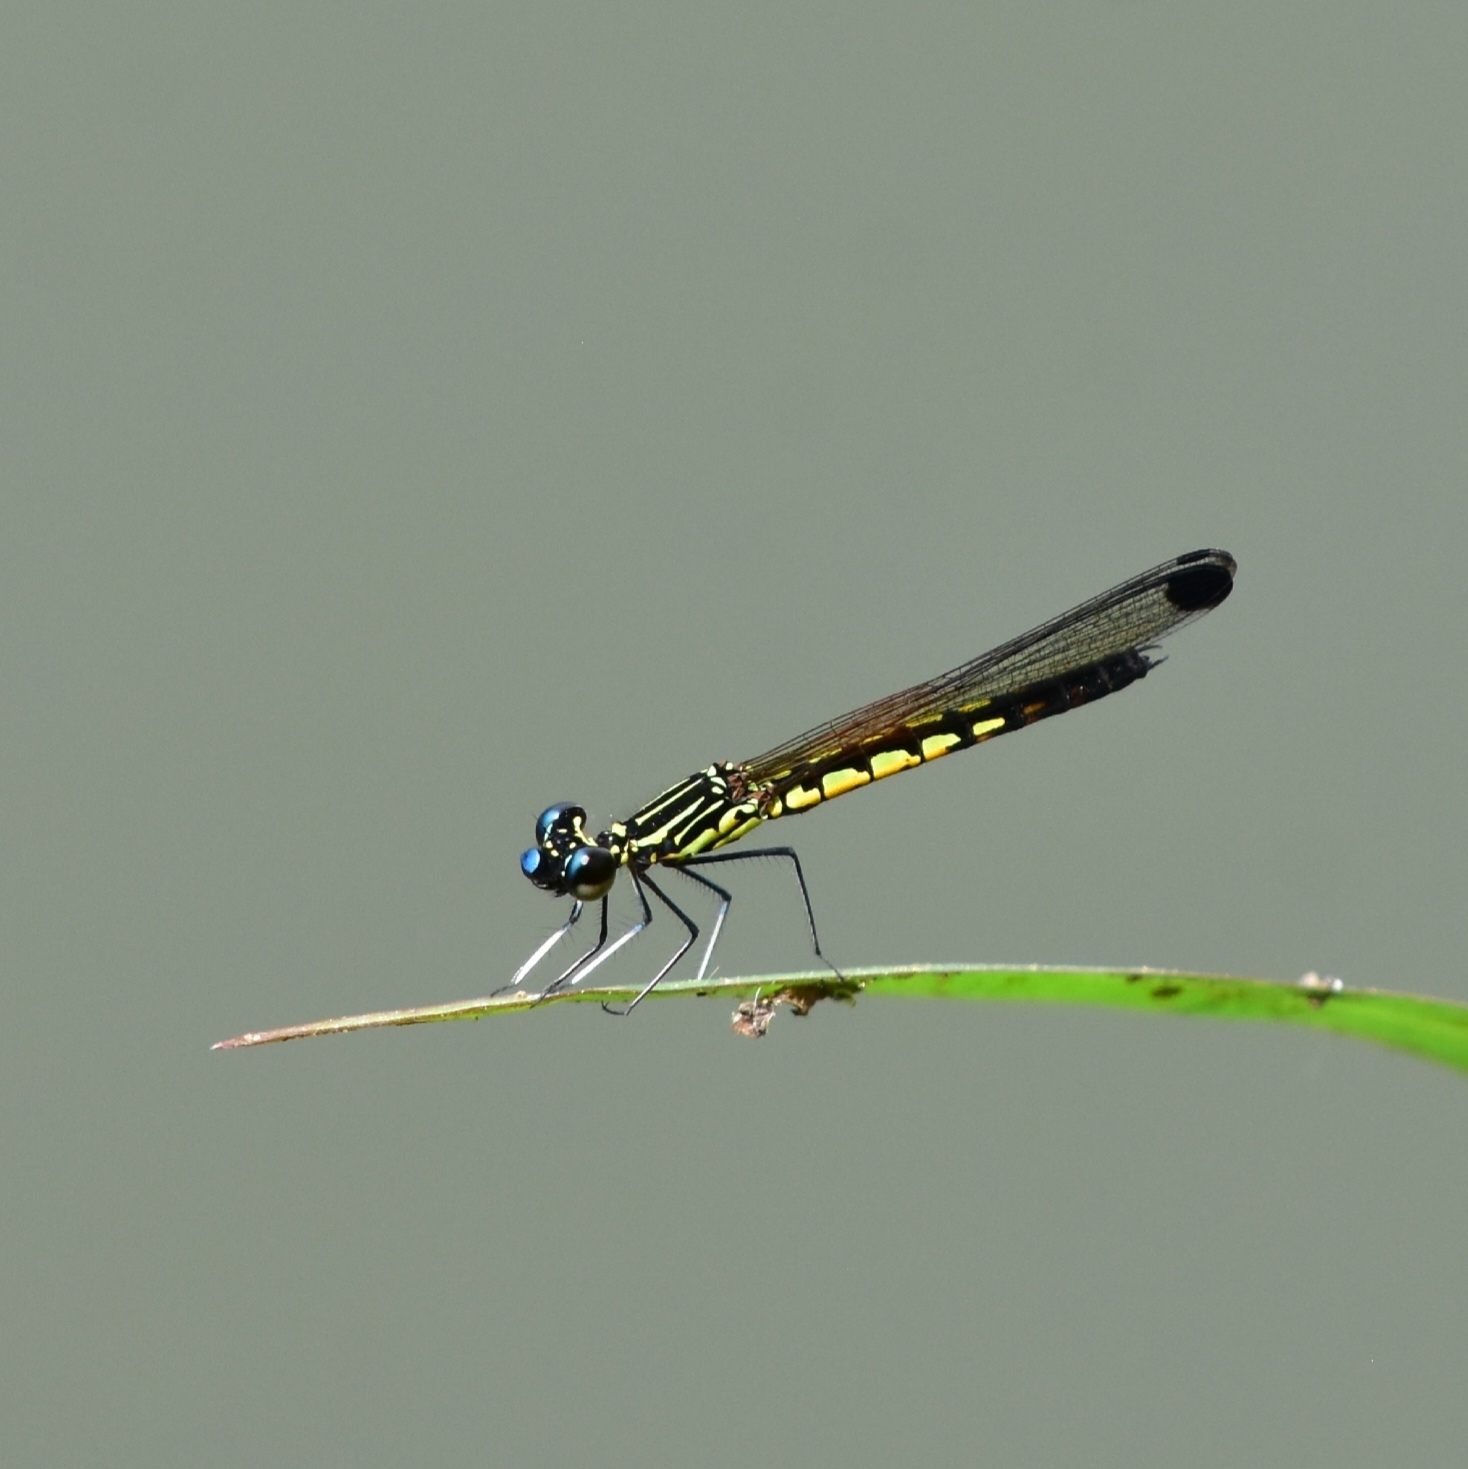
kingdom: Animalia
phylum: Arthropoda
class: Insecta
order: Odonata
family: Chlorocyphidae
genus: Libellago
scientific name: Libellago indica
